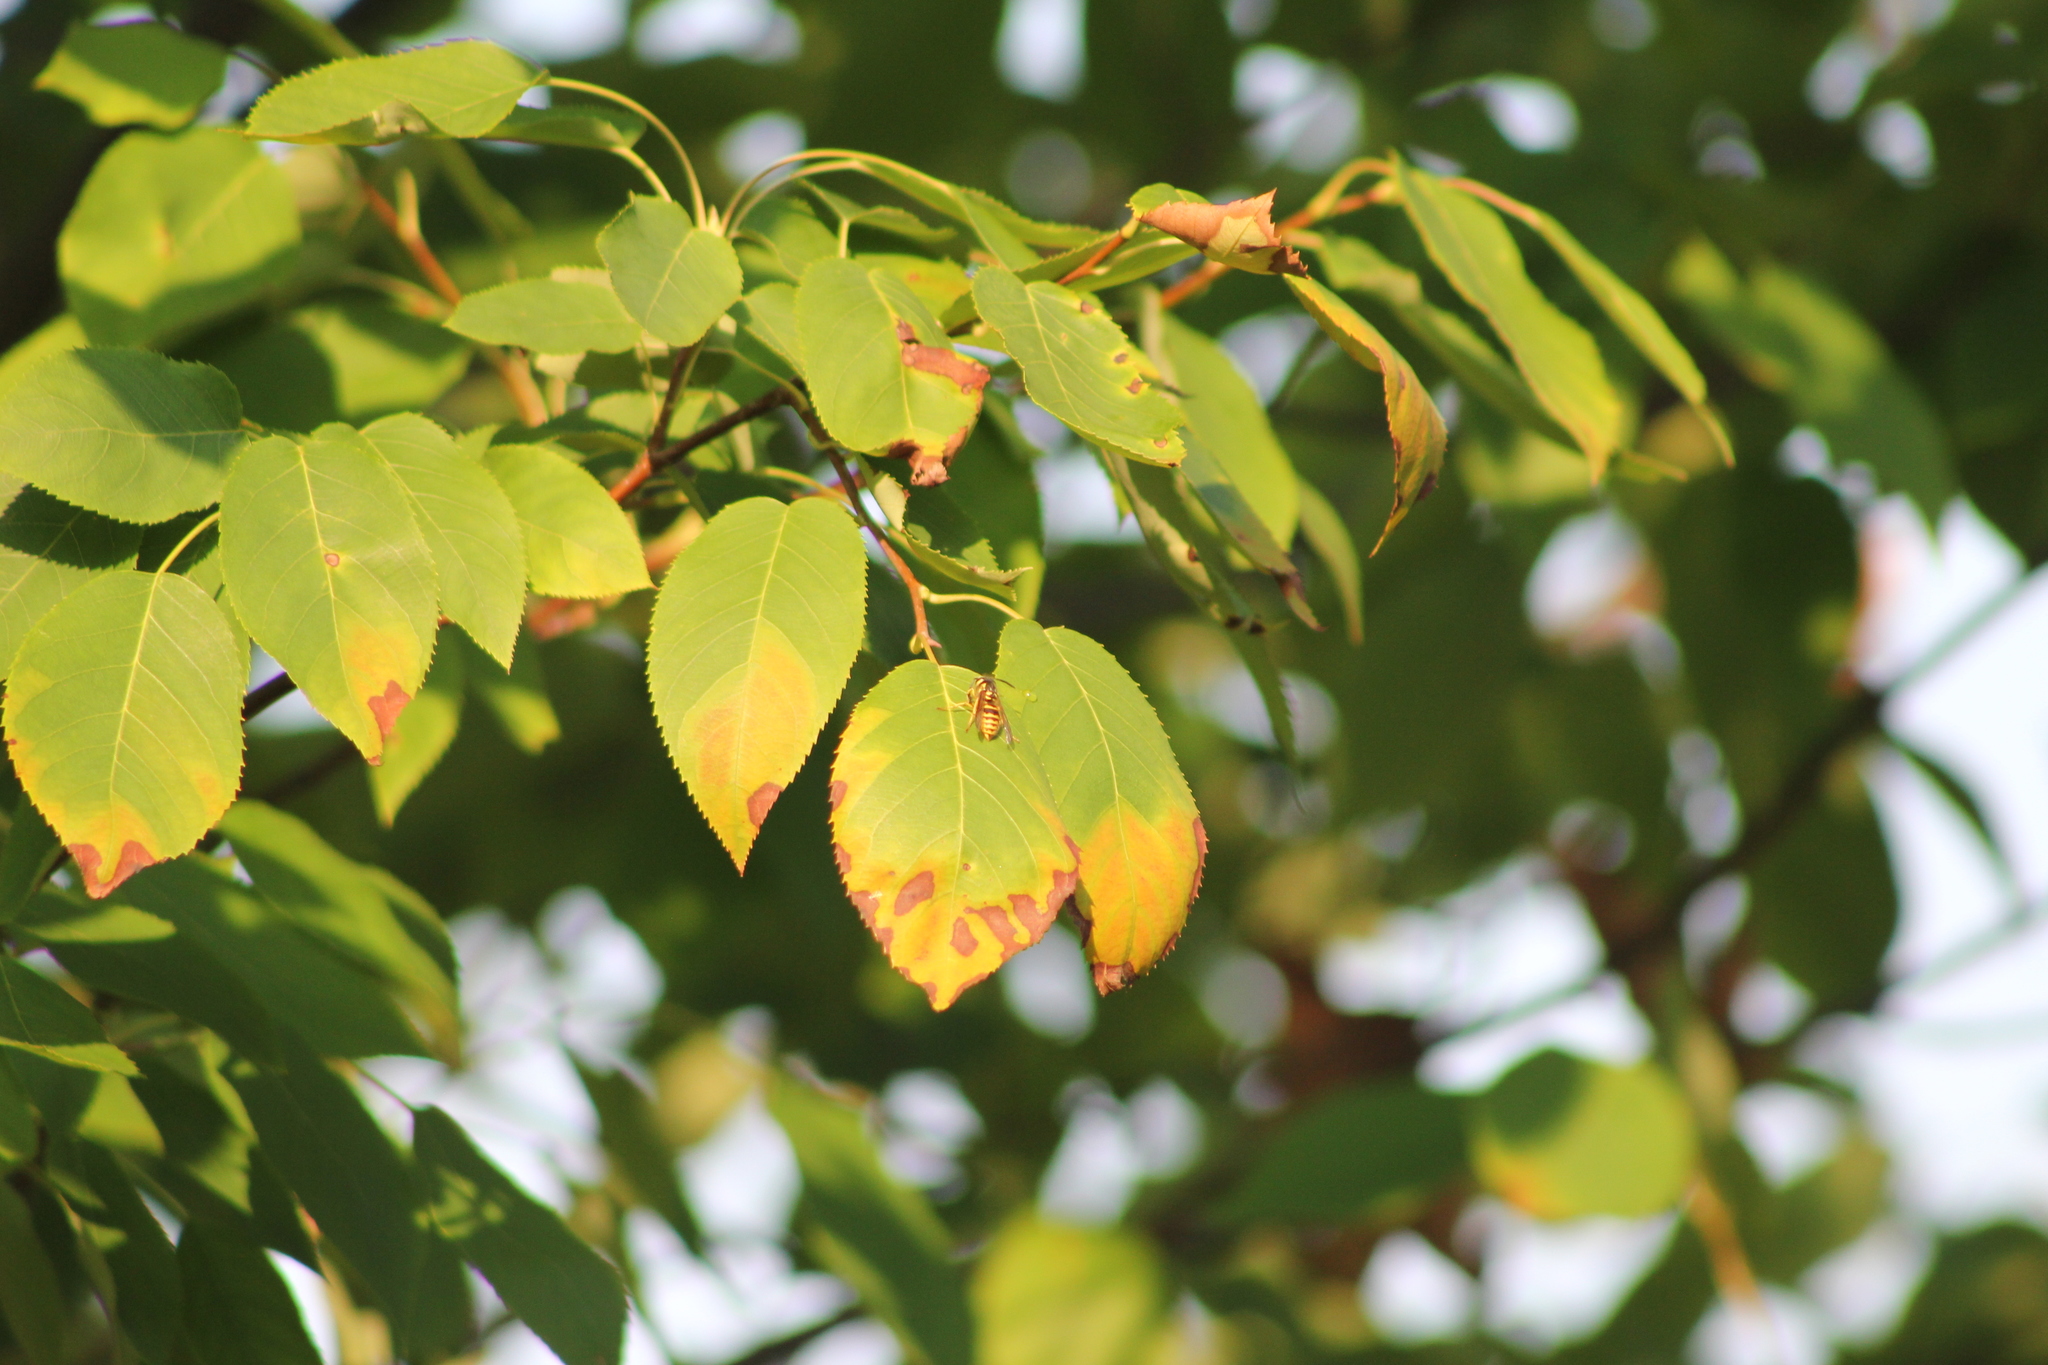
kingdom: Animalia
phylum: Arthropoda
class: Insecta
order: Hymenoptera
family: Vespidae
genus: Vespula
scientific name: Vespula
